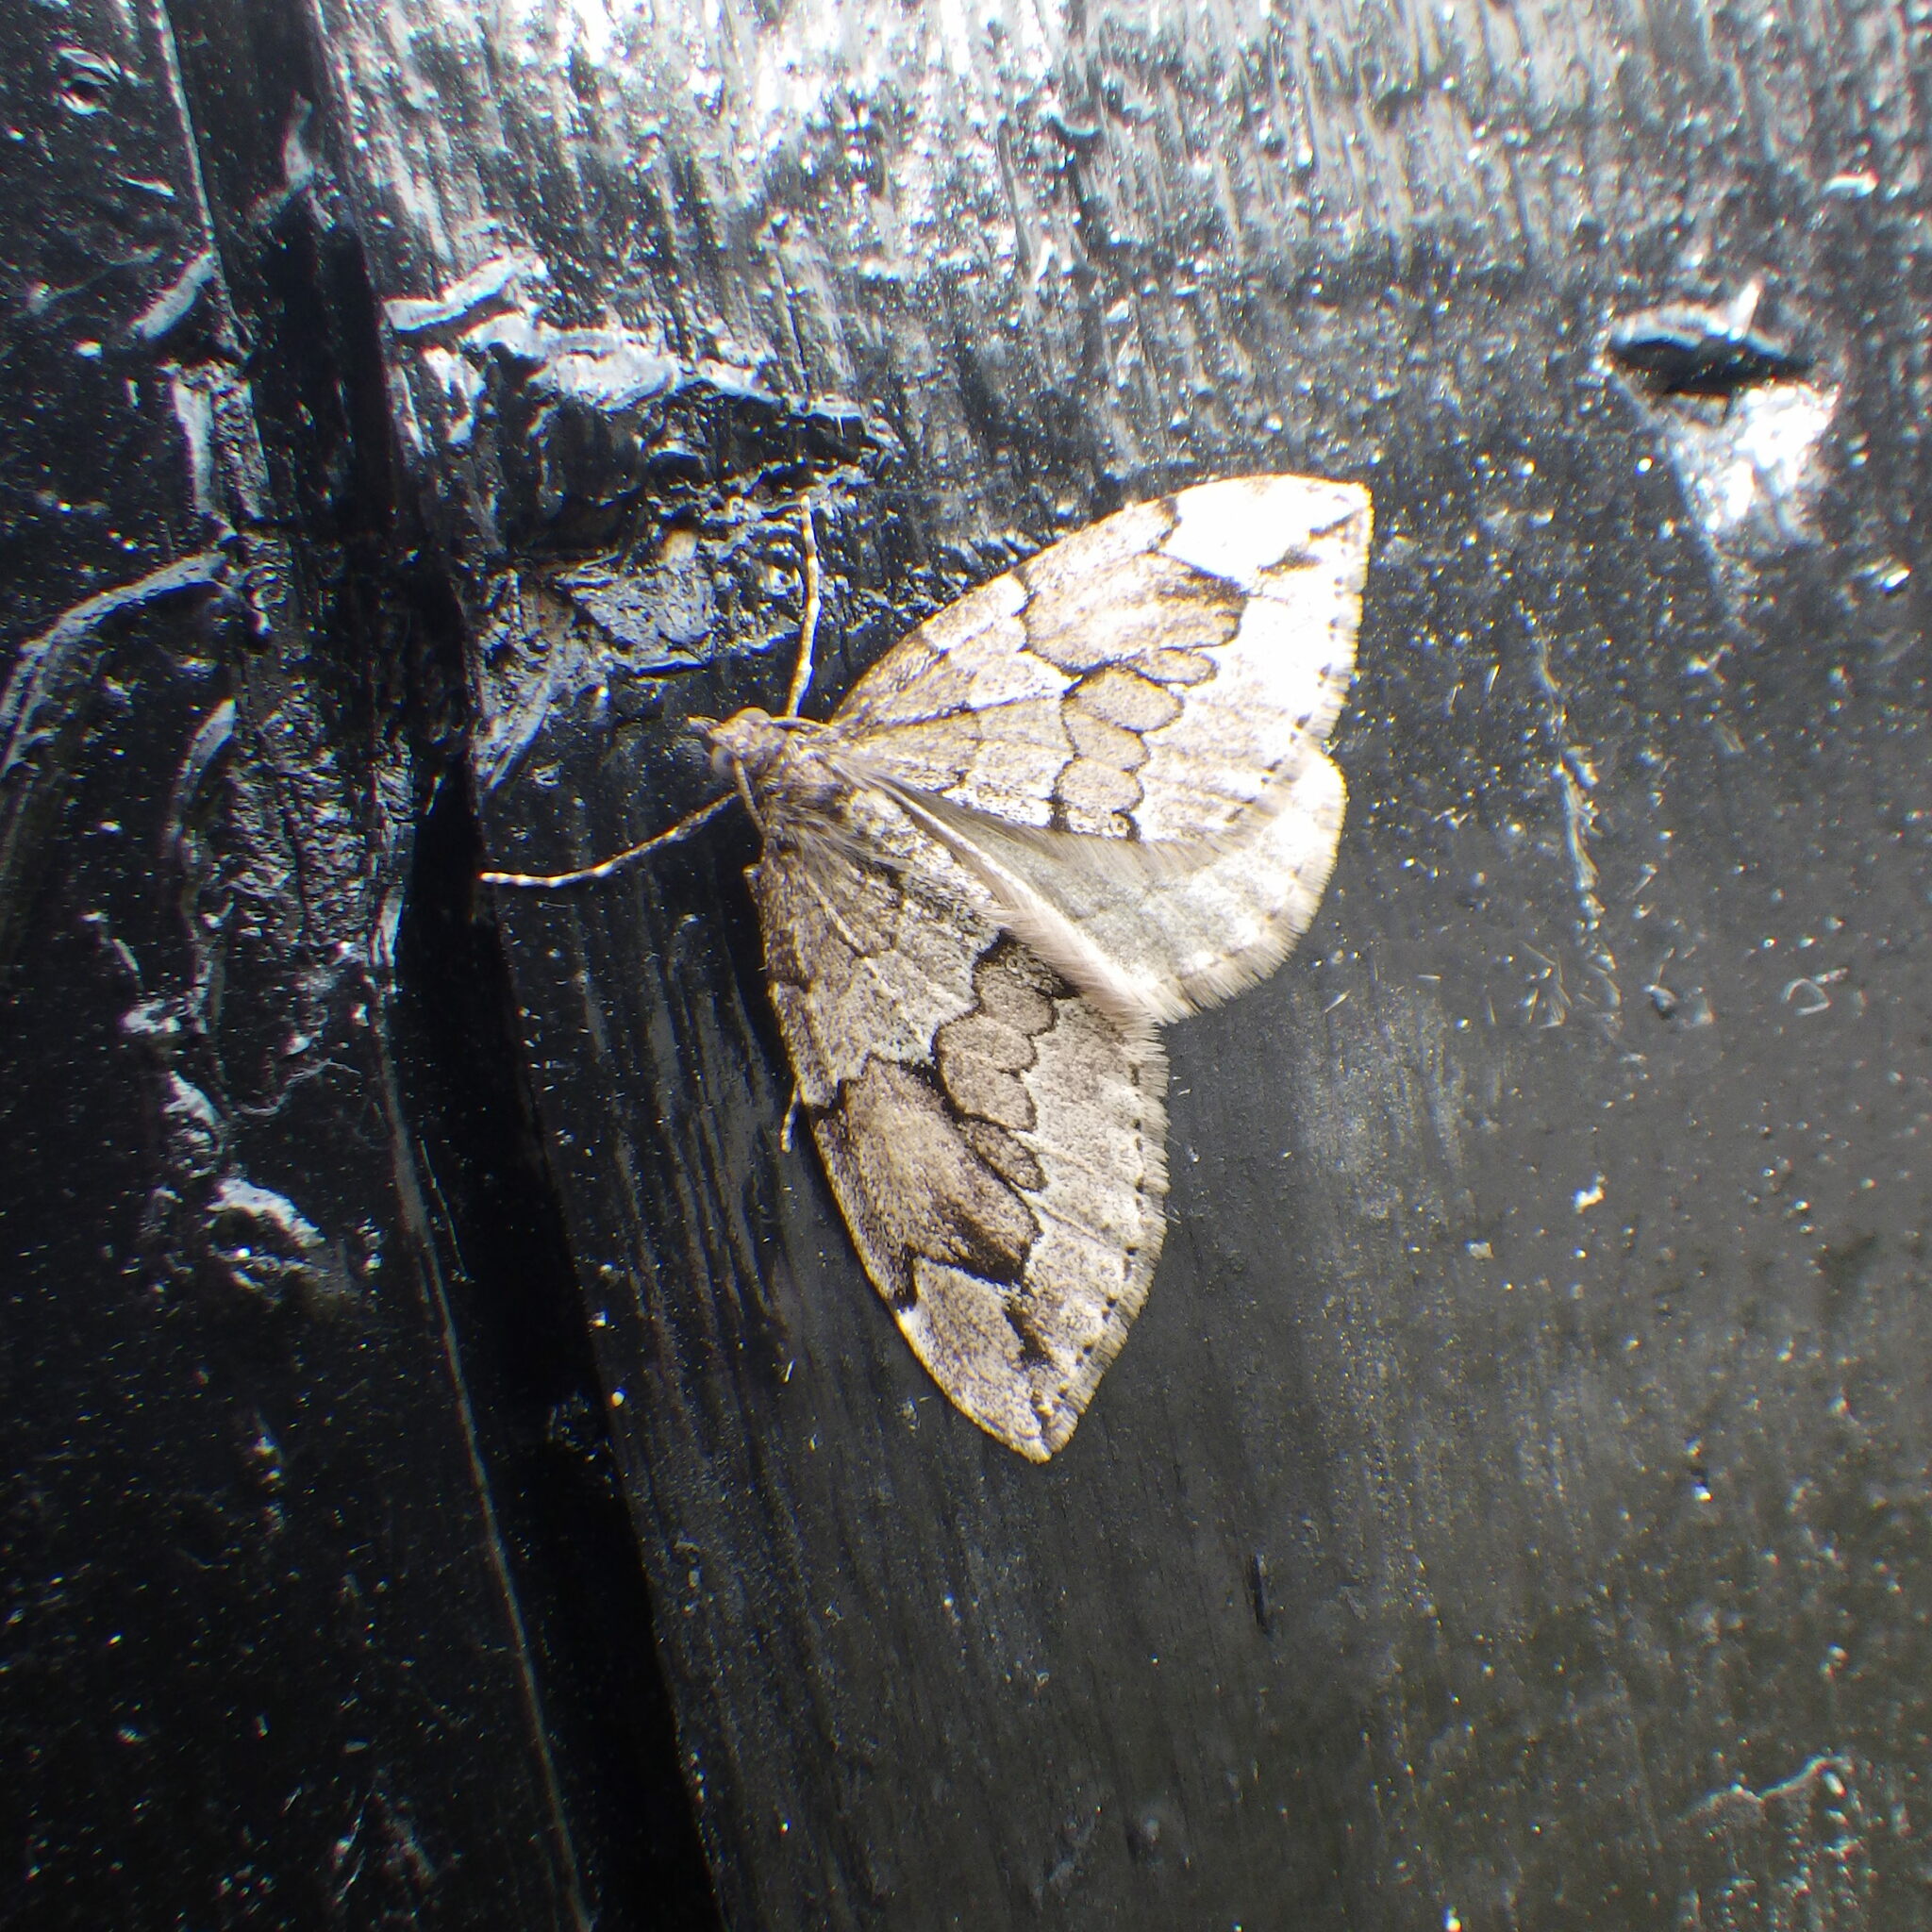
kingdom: Animalia
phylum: Arthropoda
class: Insecta
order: Lepidoptera
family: Geometridae
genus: Thera
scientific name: Thera juniperata
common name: Juniper carpet
